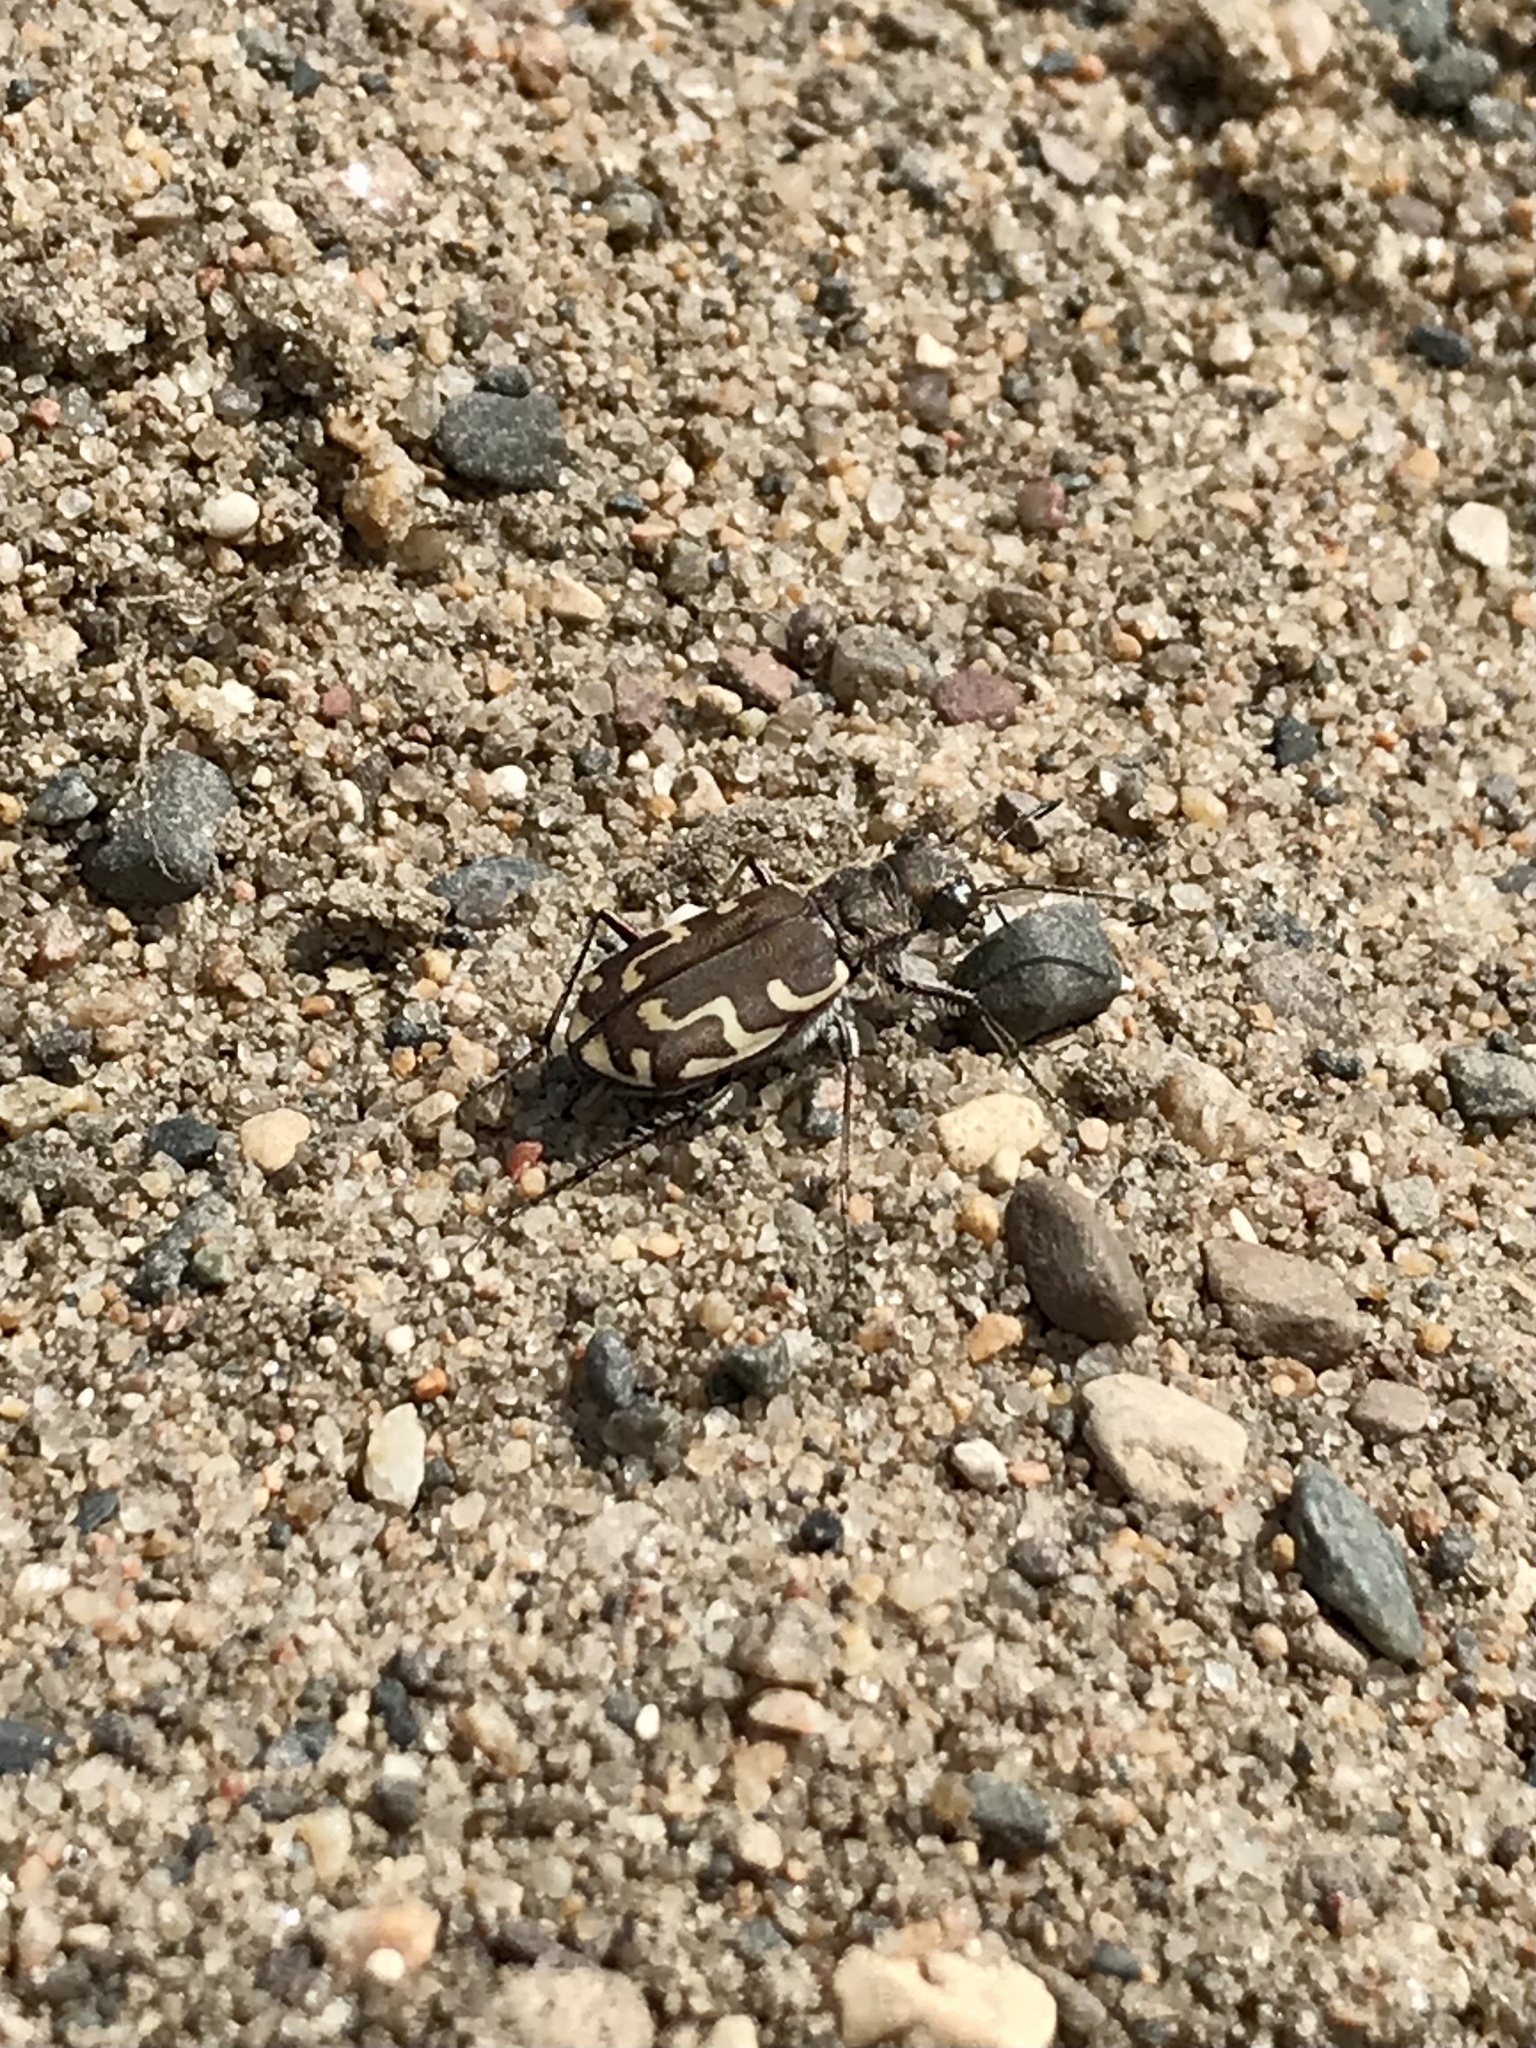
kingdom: Animalia
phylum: Arthropoda
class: Insecta
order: Coleoptera
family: Carabidae
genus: Cicindela
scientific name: Cicindela repanda
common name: Bronzed tiger beetle
